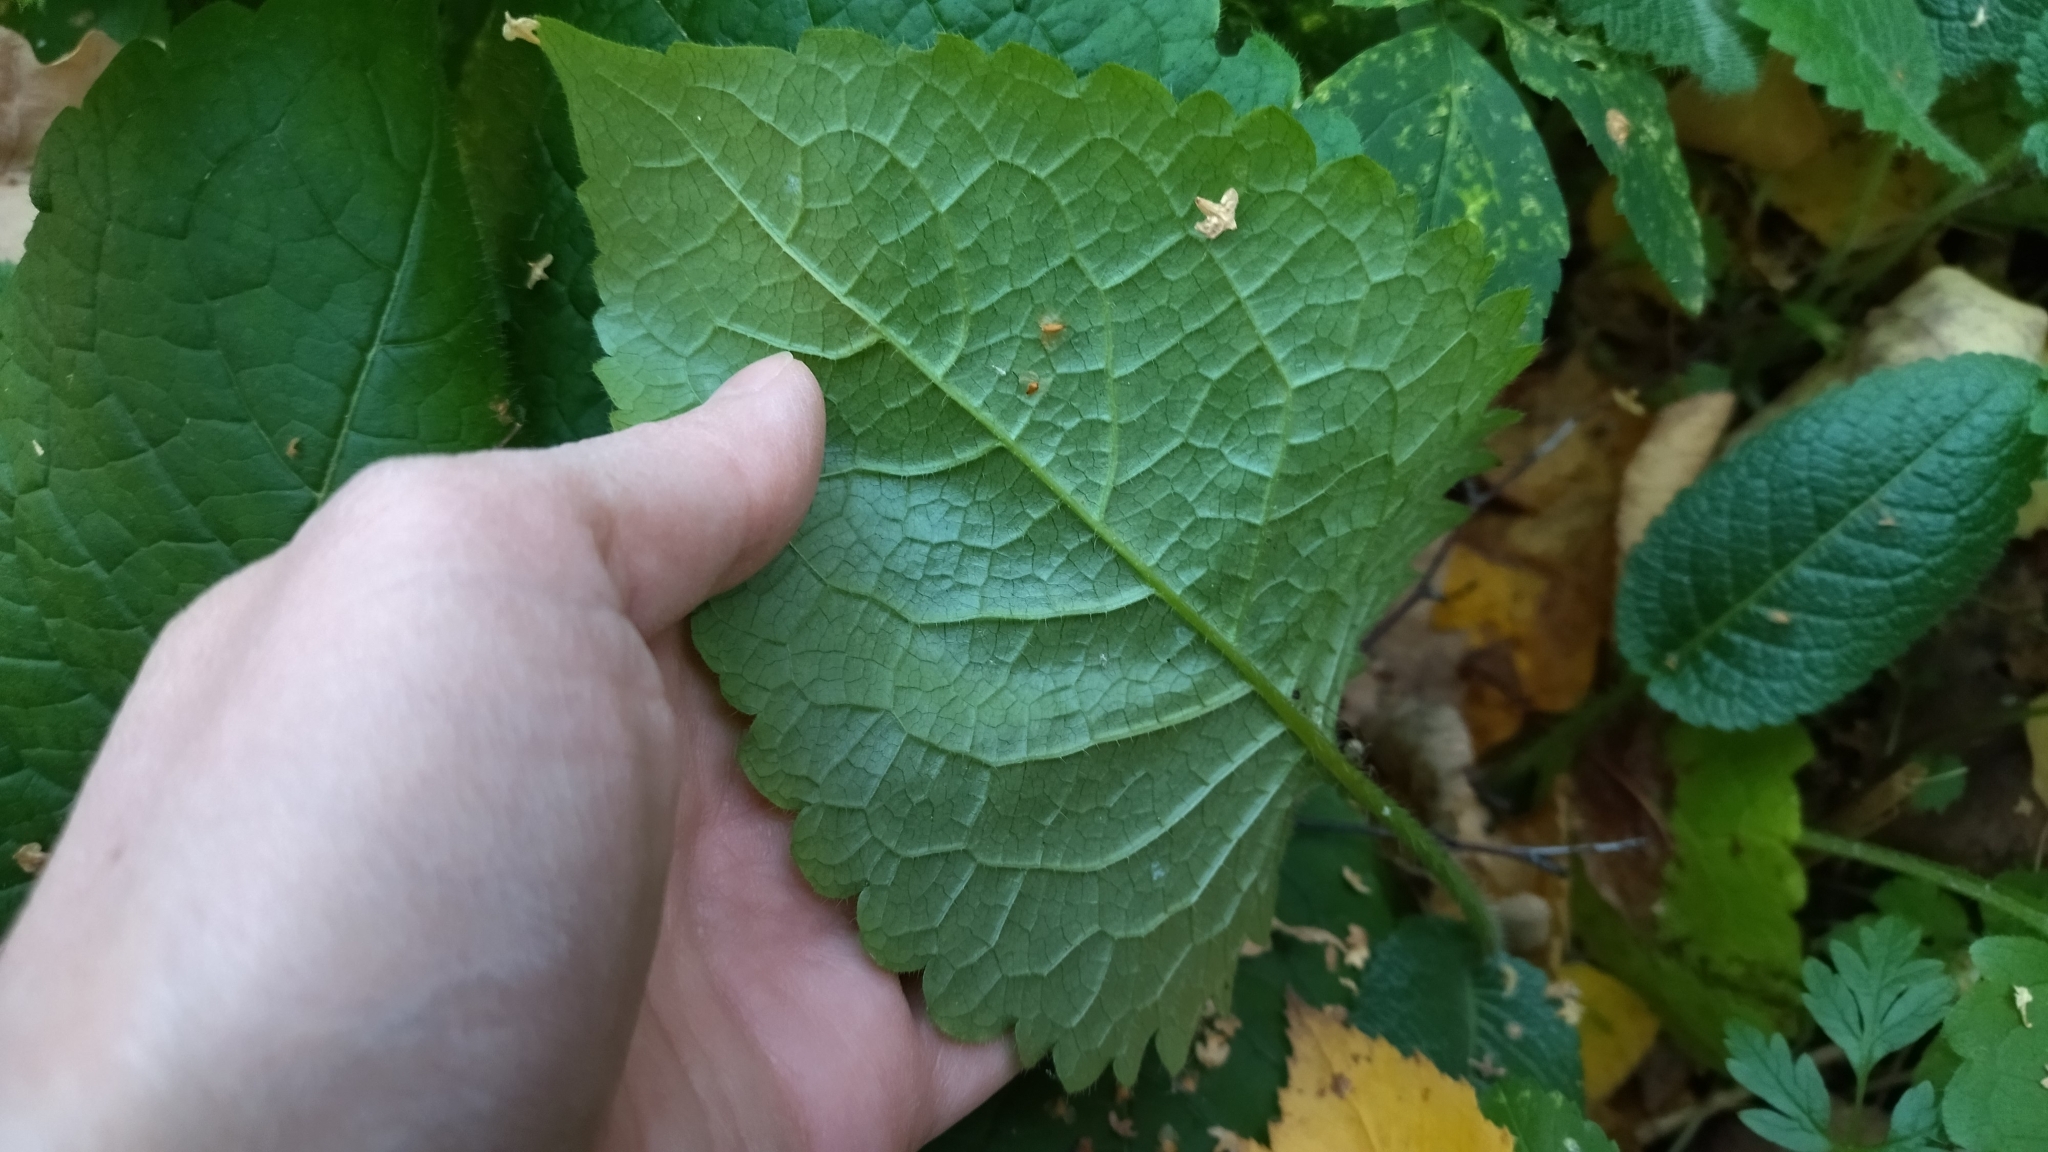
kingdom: Plantae
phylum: Tracheophyta
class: Magnoliopsida
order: Dipsacales
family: Caprifoliaceae
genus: Dipsacus
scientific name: Dipsacus pilosus
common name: Small teasel
